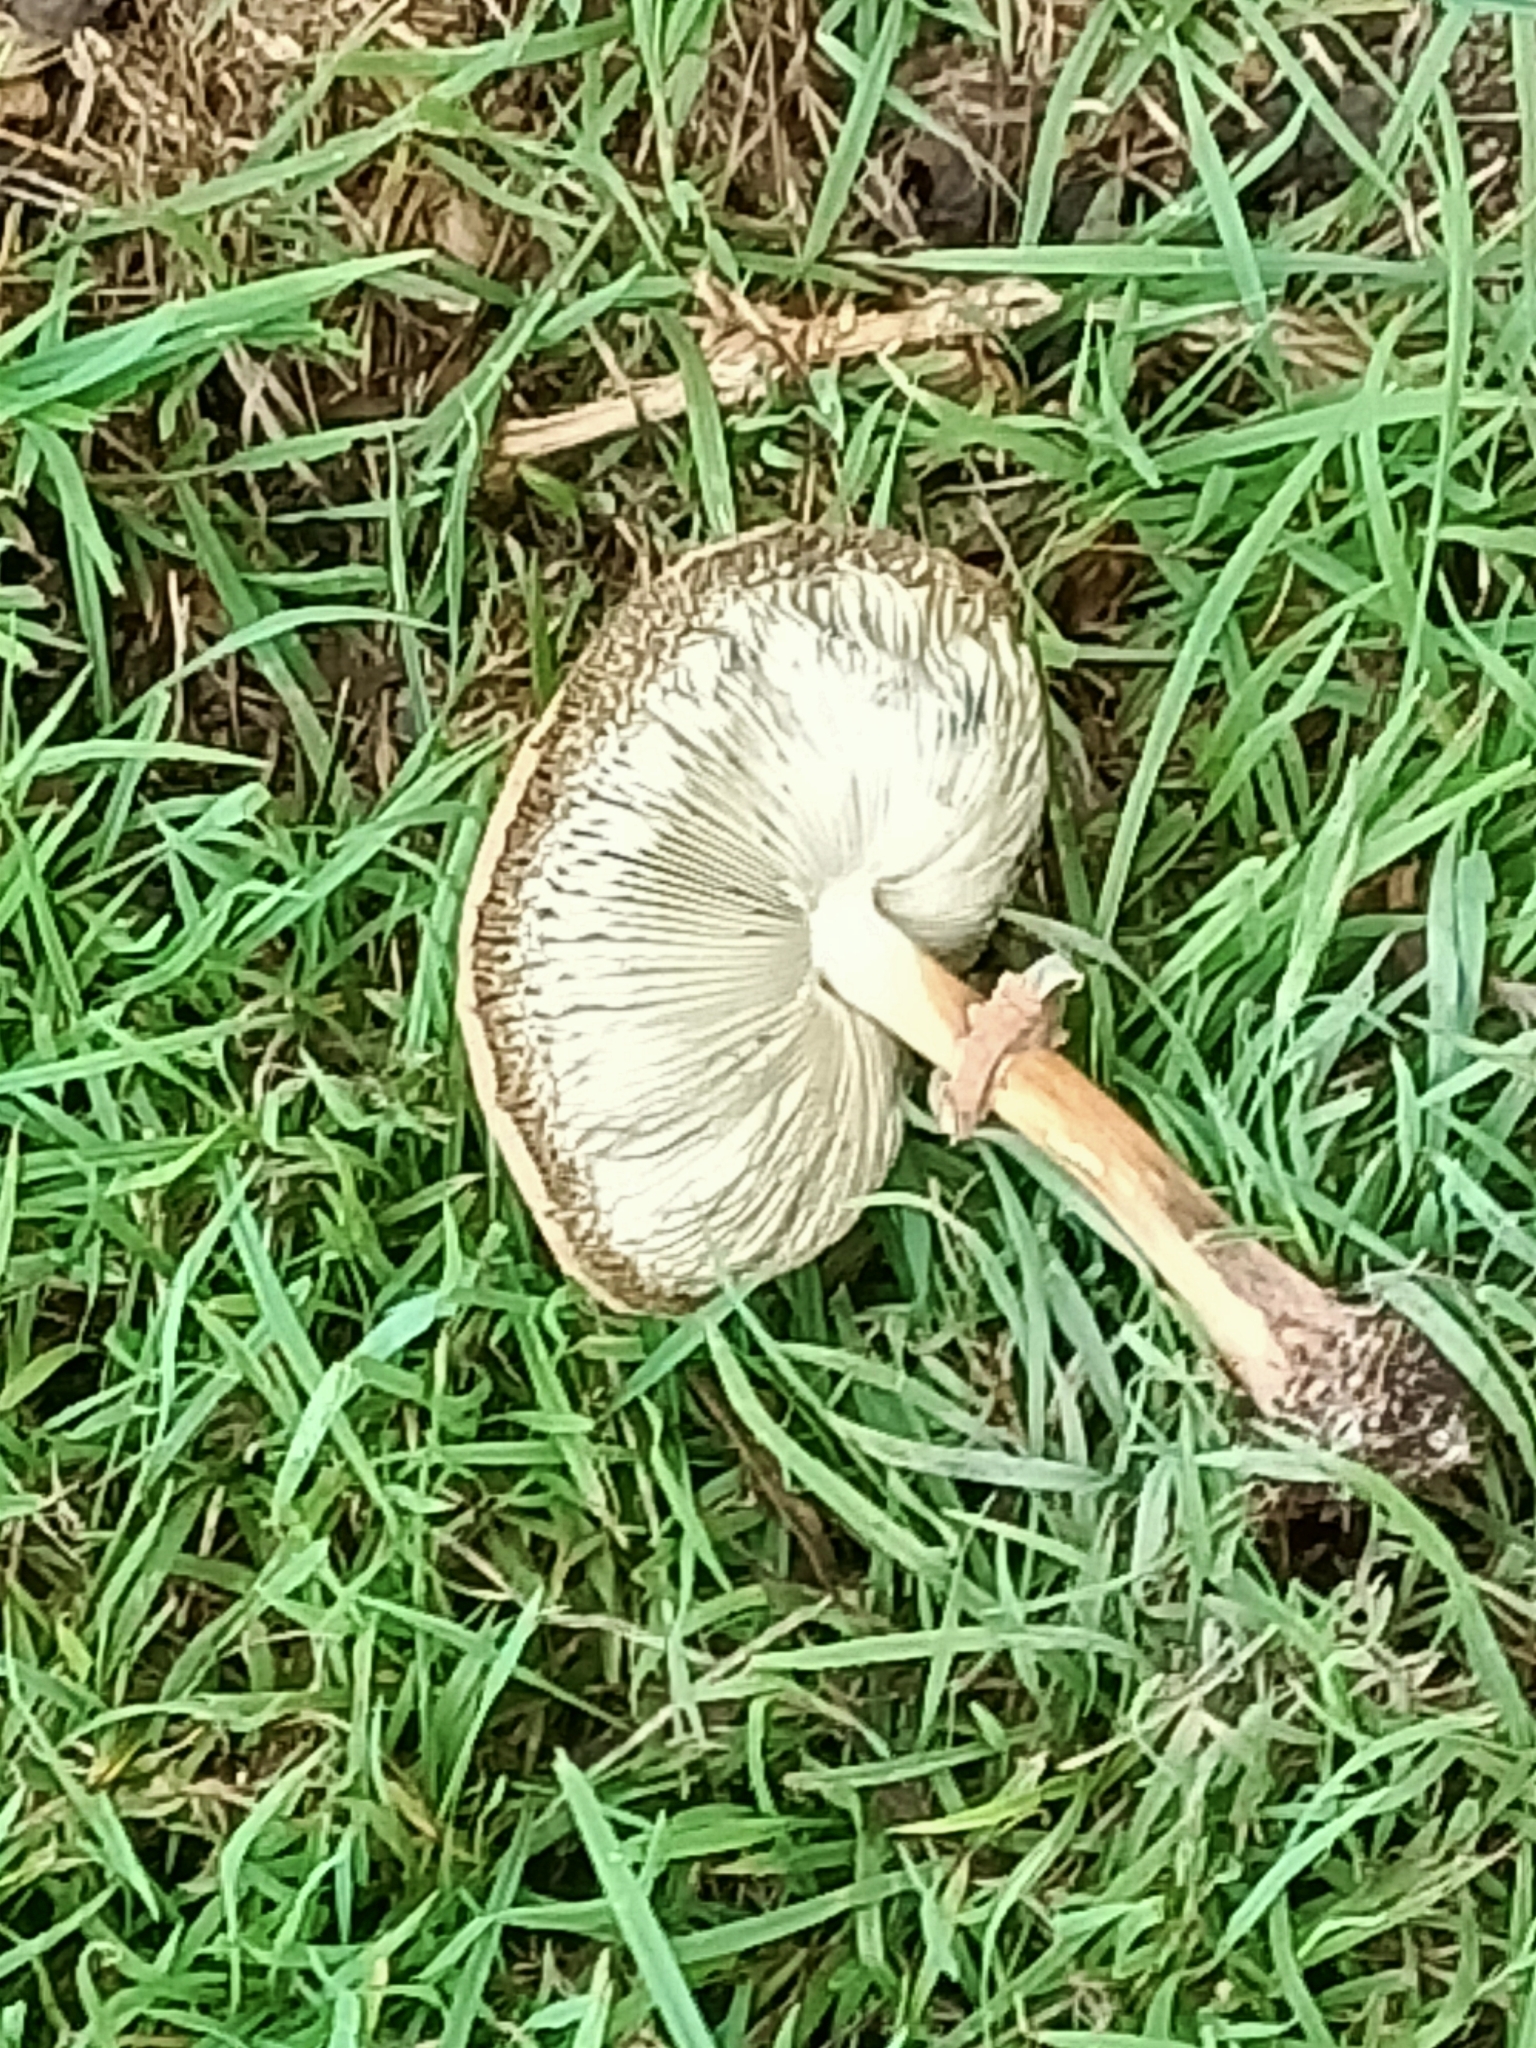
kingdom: Fungi
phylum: Basidiomycota
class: Agaricomycetes
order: Agaricales
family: Agaricaceae
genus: Chlorophyllum
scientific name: Chlorophyllum molybdites
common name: False parasol
